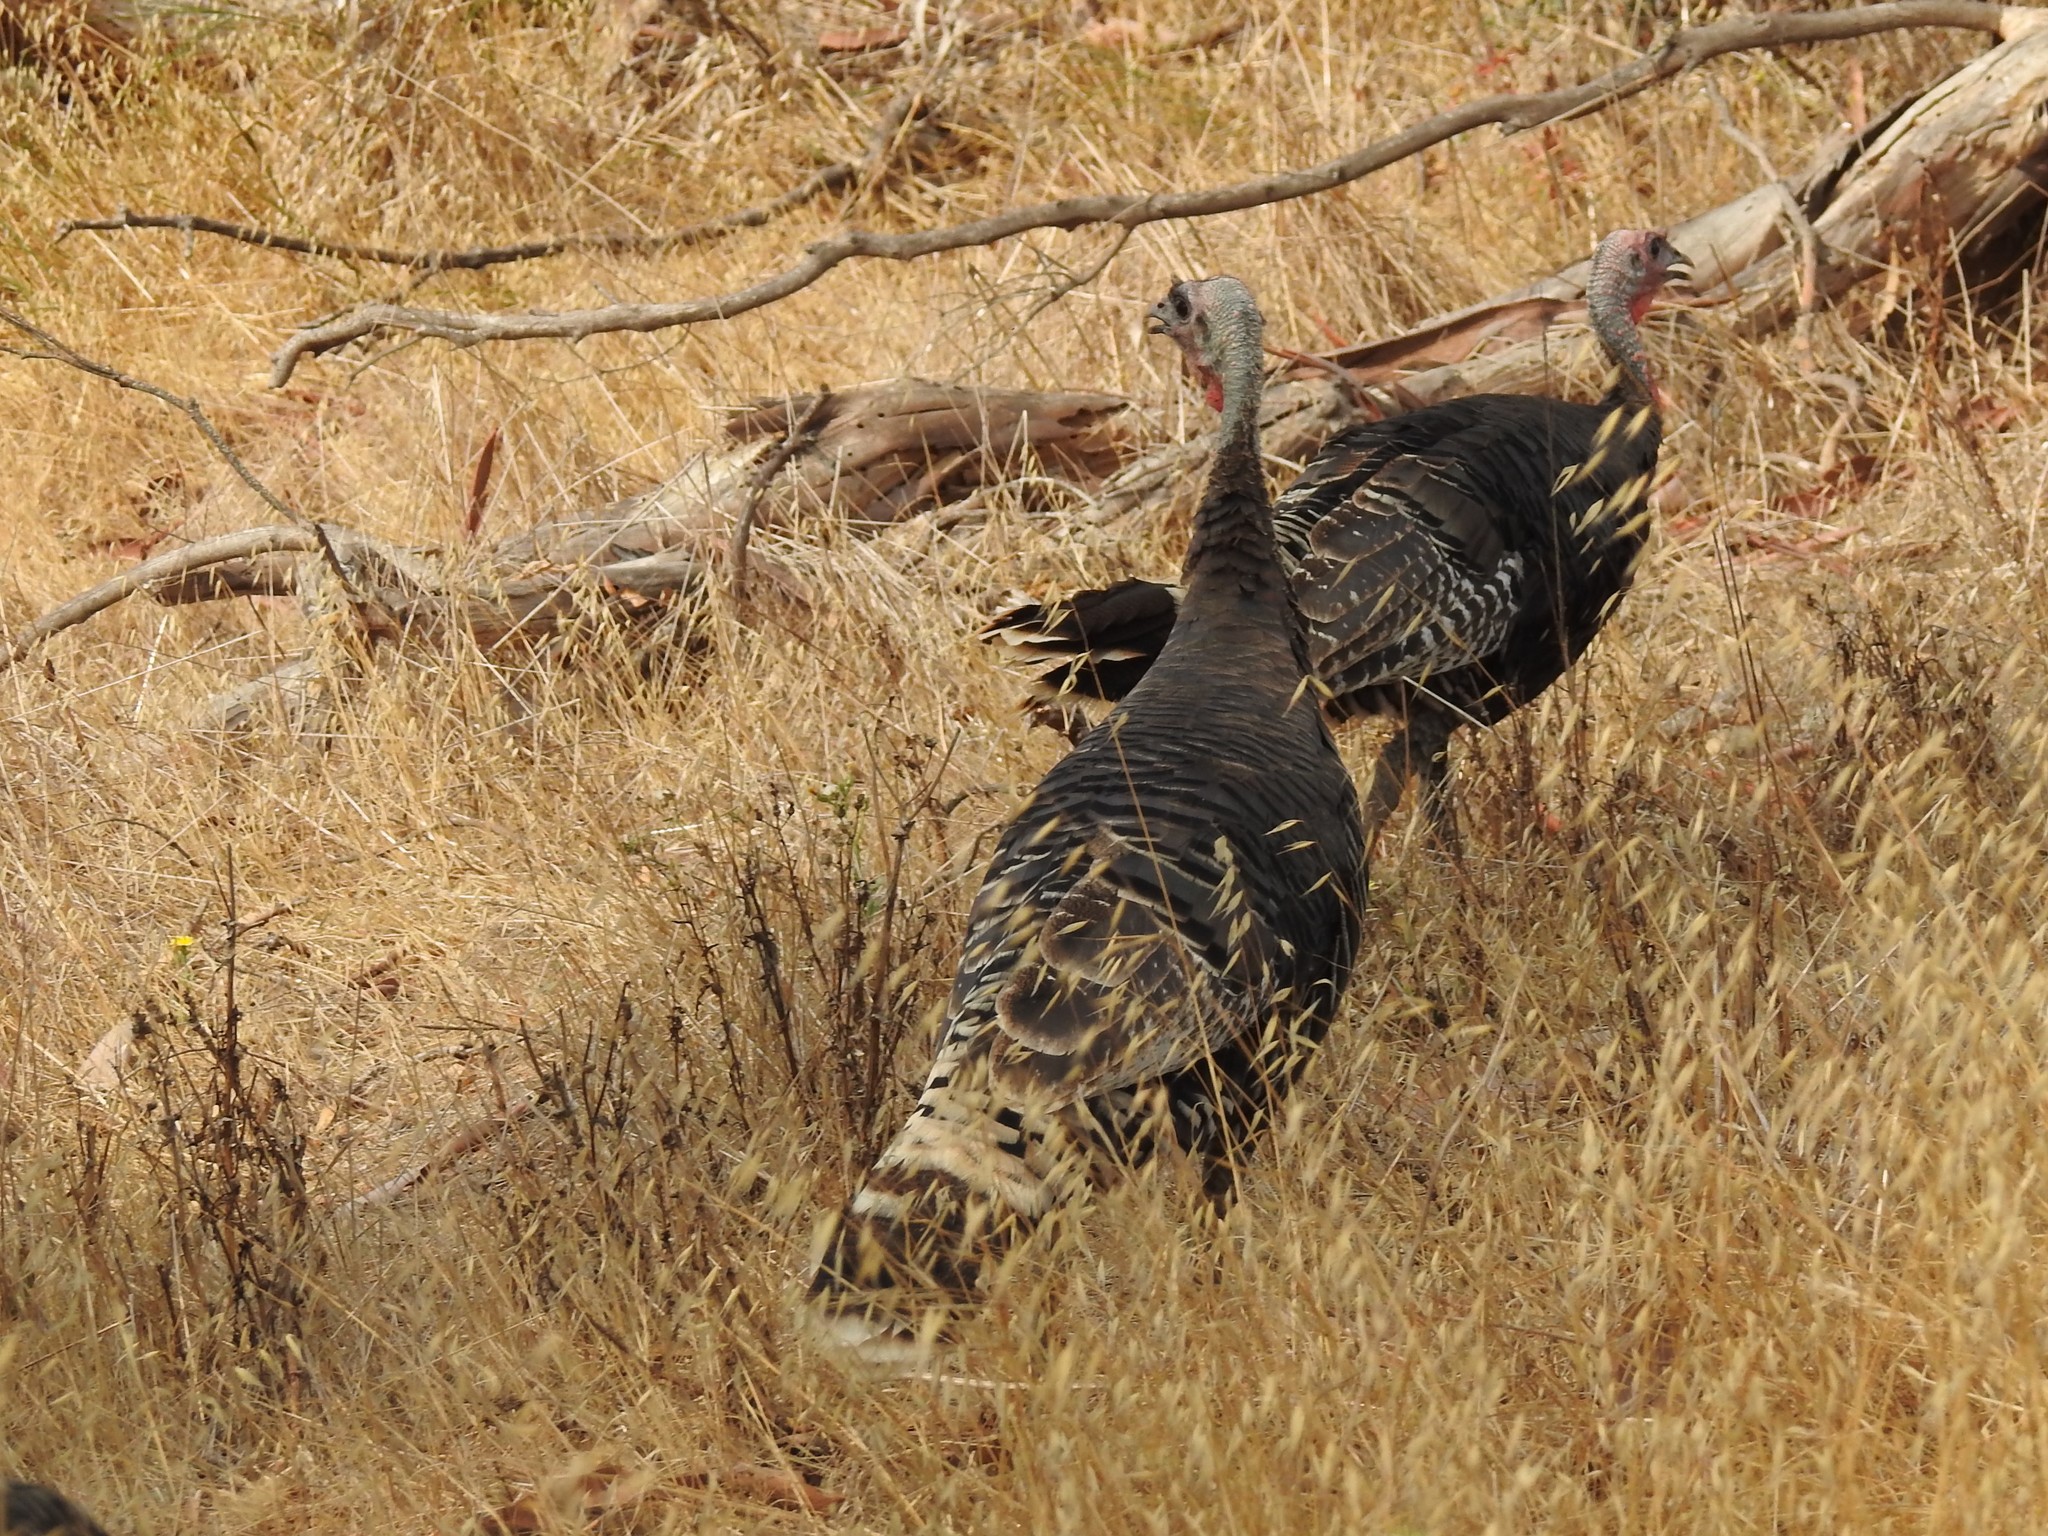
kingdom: Animalia
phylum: Chordata
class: Aves
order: Galliformes
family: Phasianidae
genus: Meleagris
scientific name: Meleagris gallopavo
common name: Wild turkey
